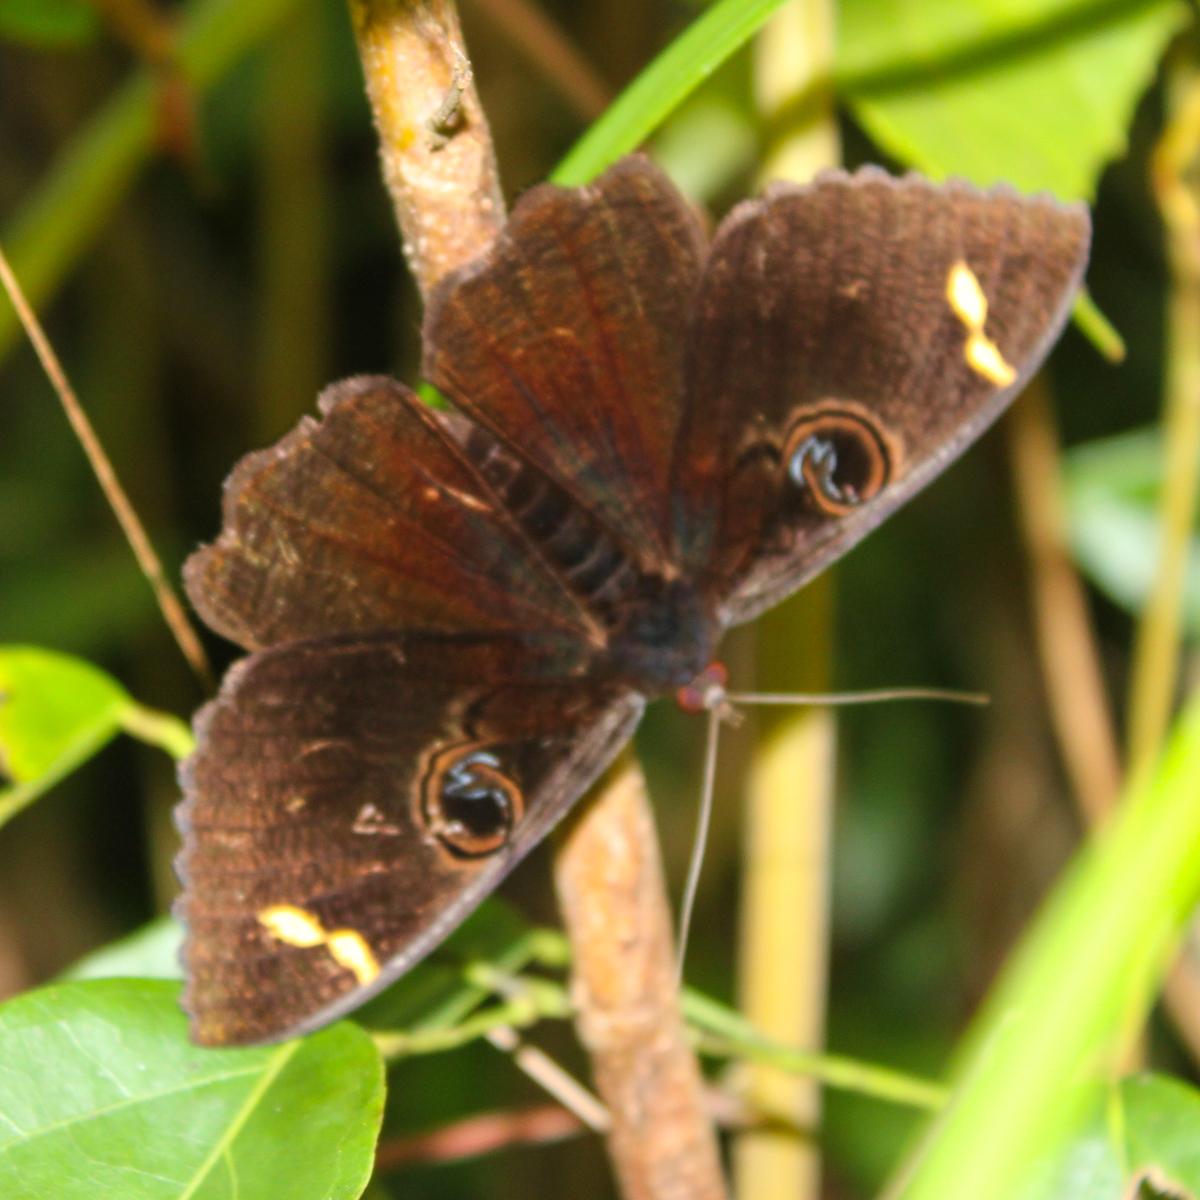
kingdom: Animalia
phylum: Arthropoda
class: Insecta
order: Lepidoptera
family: Erebidae
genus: Erebus
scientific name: Erebus hieroglyphica
